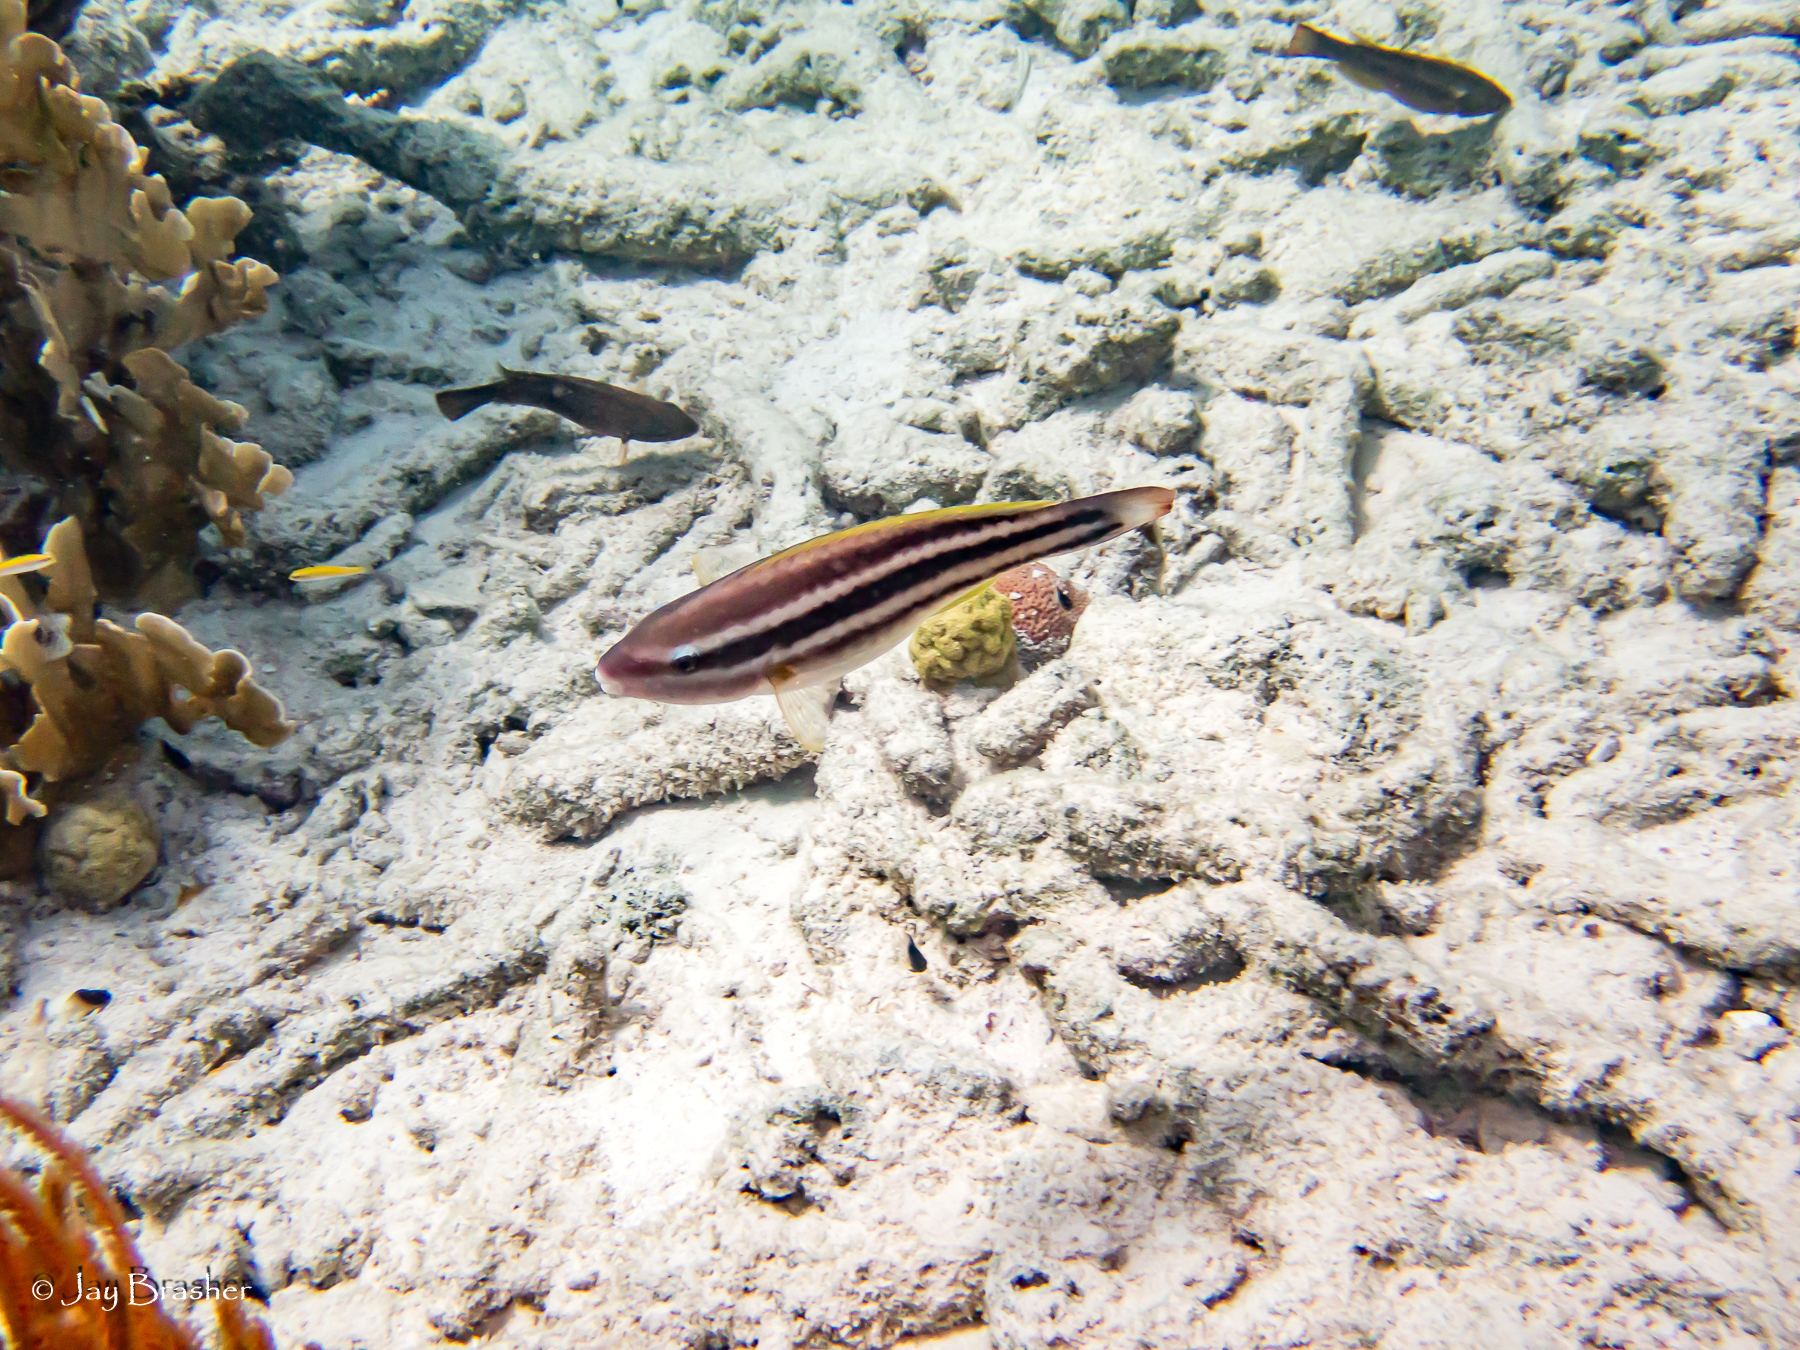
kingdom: Animalia
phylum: Chordata
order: Perciformes
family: Scaridae
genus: Scarus
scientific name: Scarus taeniopterus
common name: Princess parrotfish
